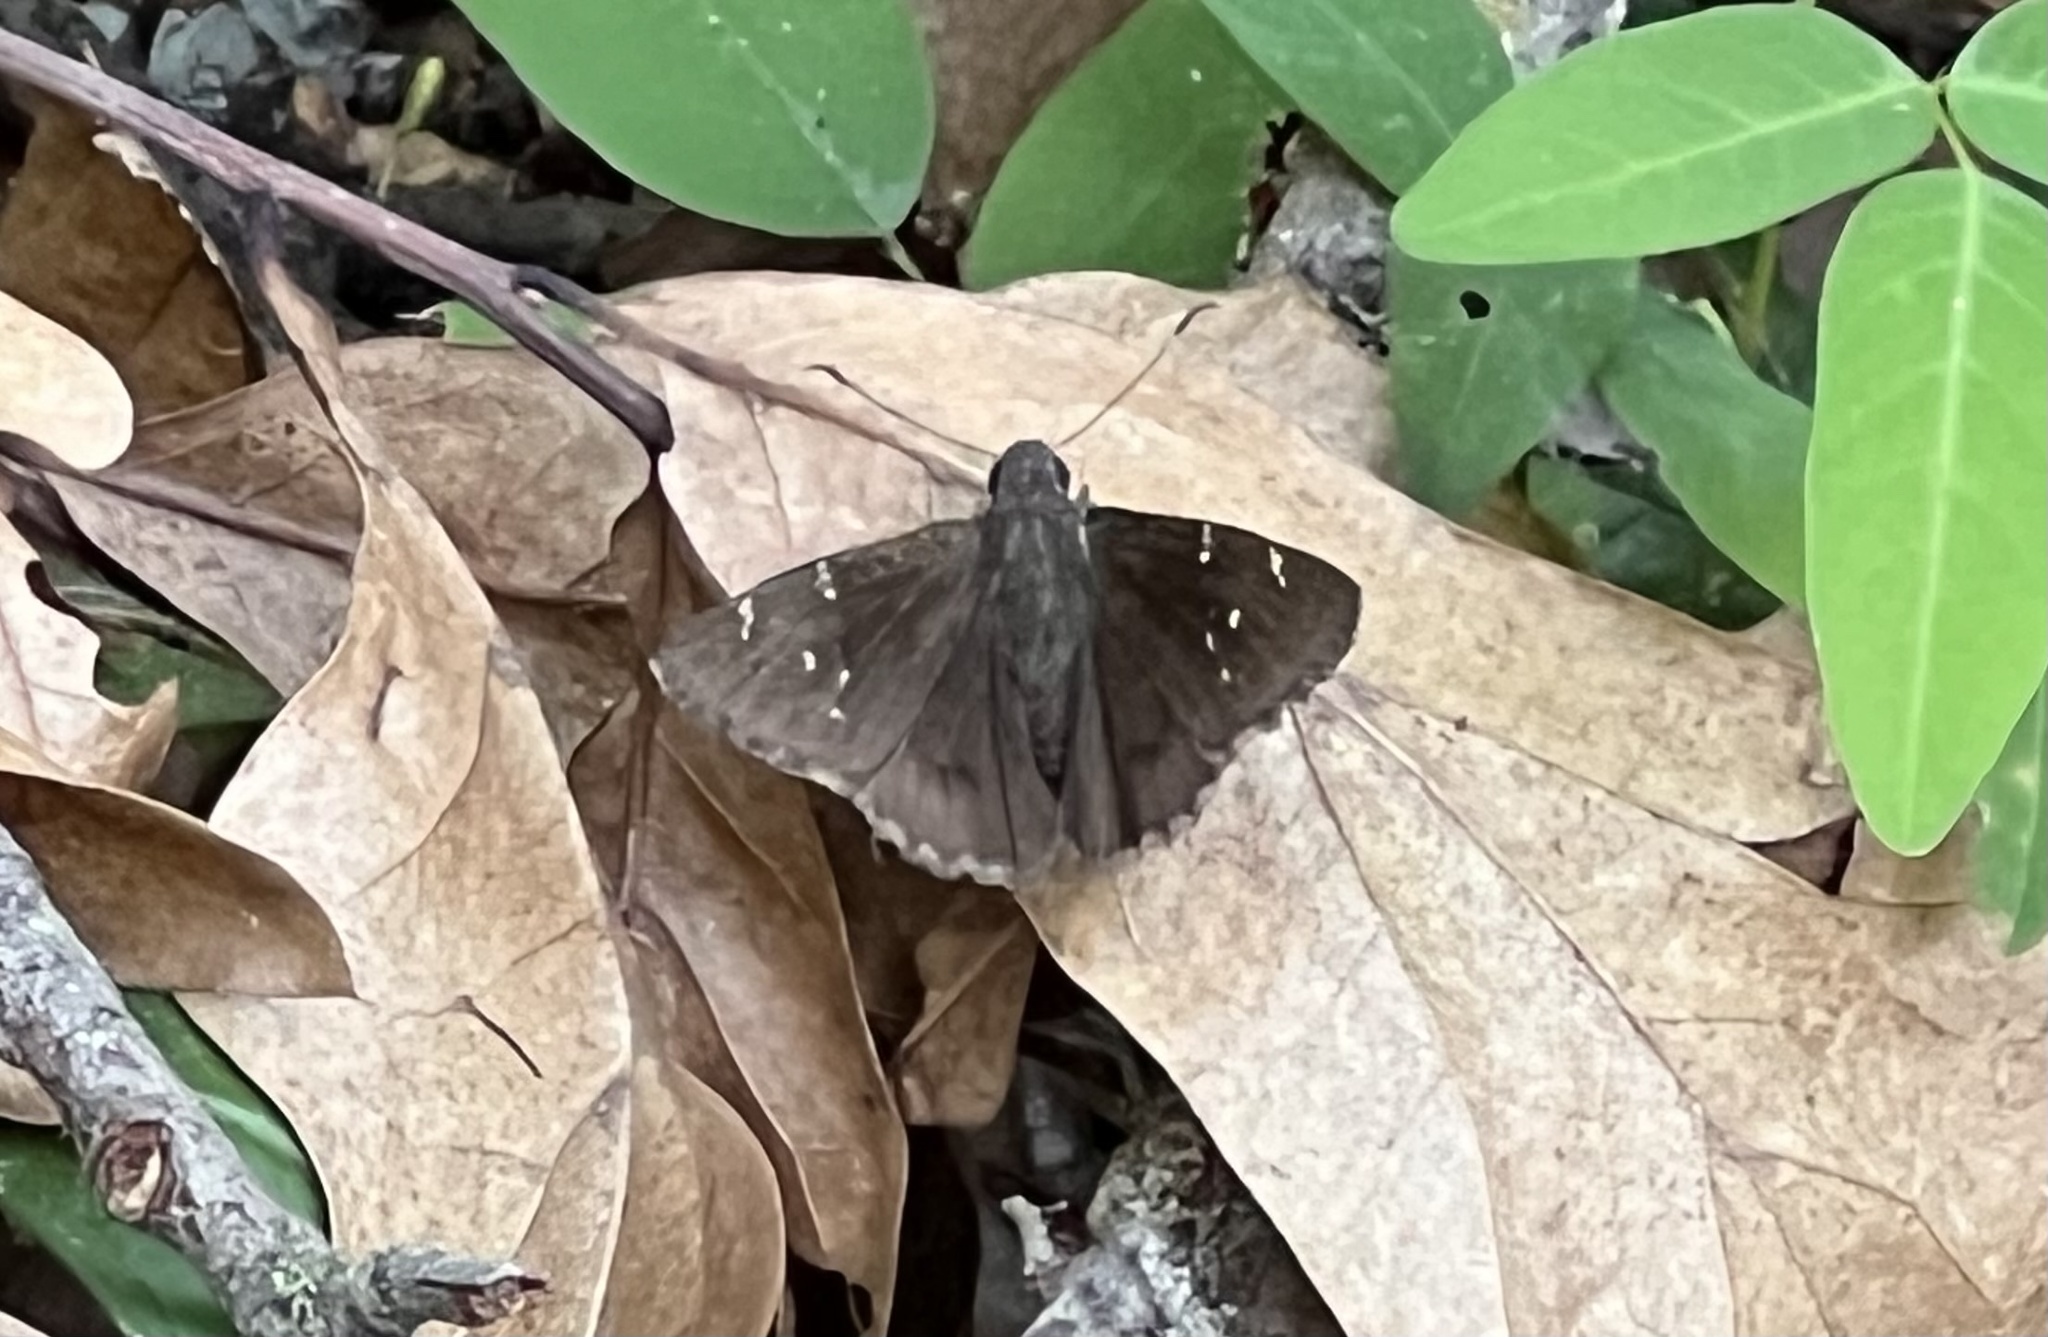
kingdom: Animalia
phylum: Arthropoda
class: Insecta
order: Lepidoptera
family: Hesperiidae
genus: Thorybes
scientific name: Thorybes pylades
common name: Northern cloudywing
